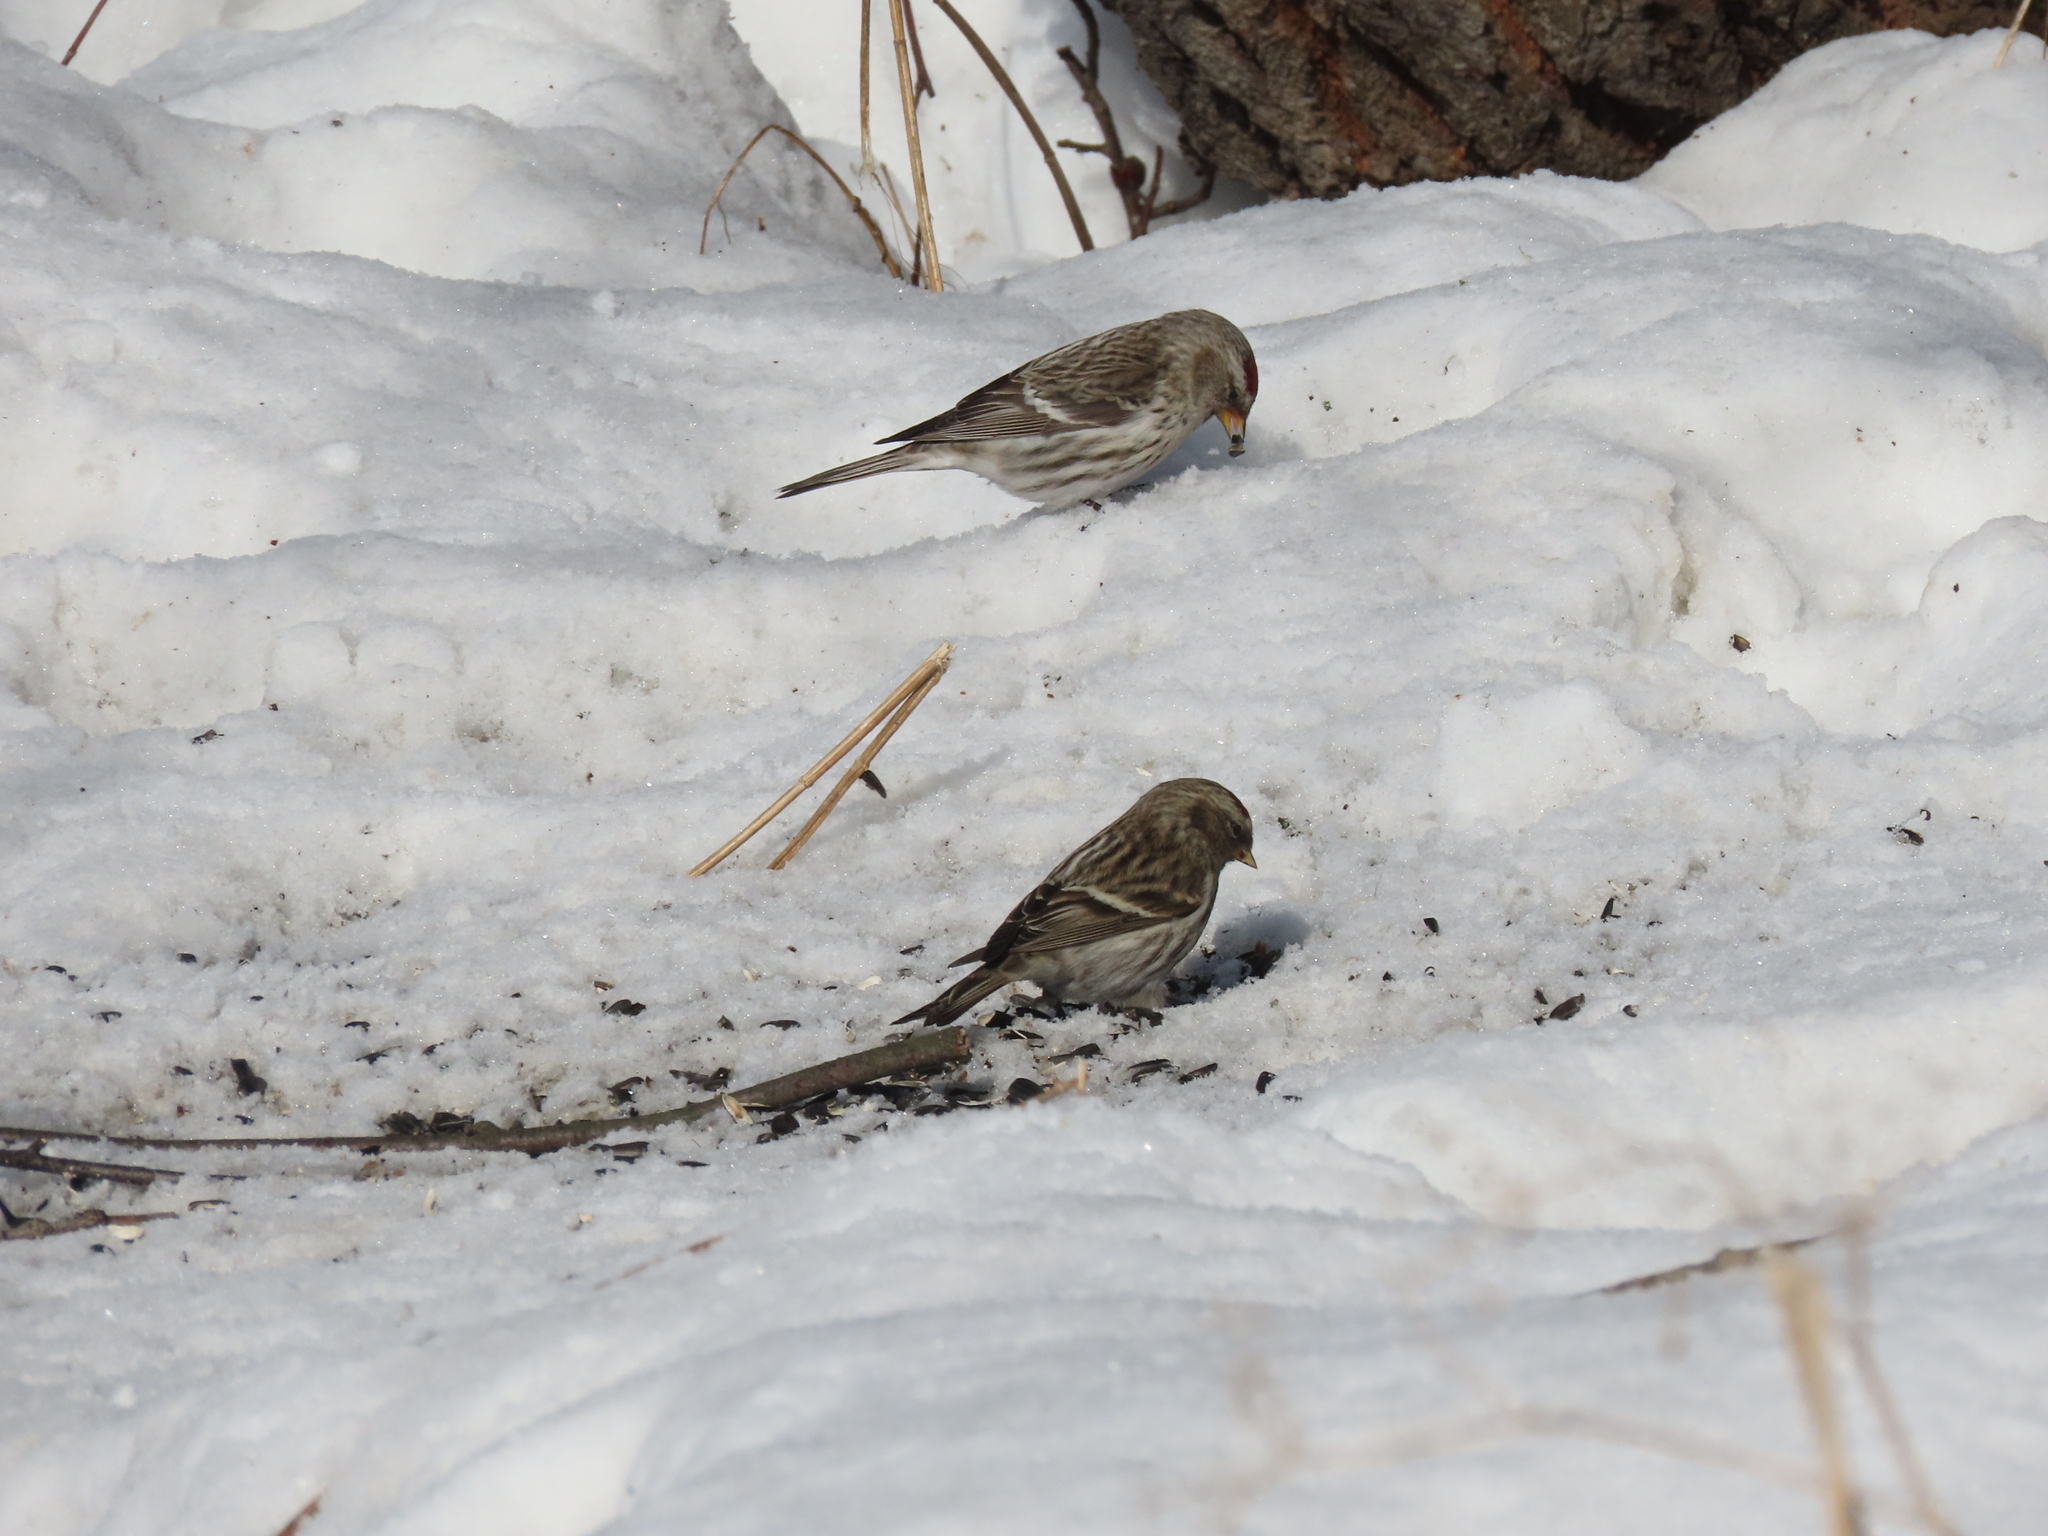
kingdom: Animalia
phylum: Chordata
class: Aves
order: Passeriformes
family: Fringillidae
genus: Acanthis
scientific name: Acanthis flammea
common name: Common redpoll
